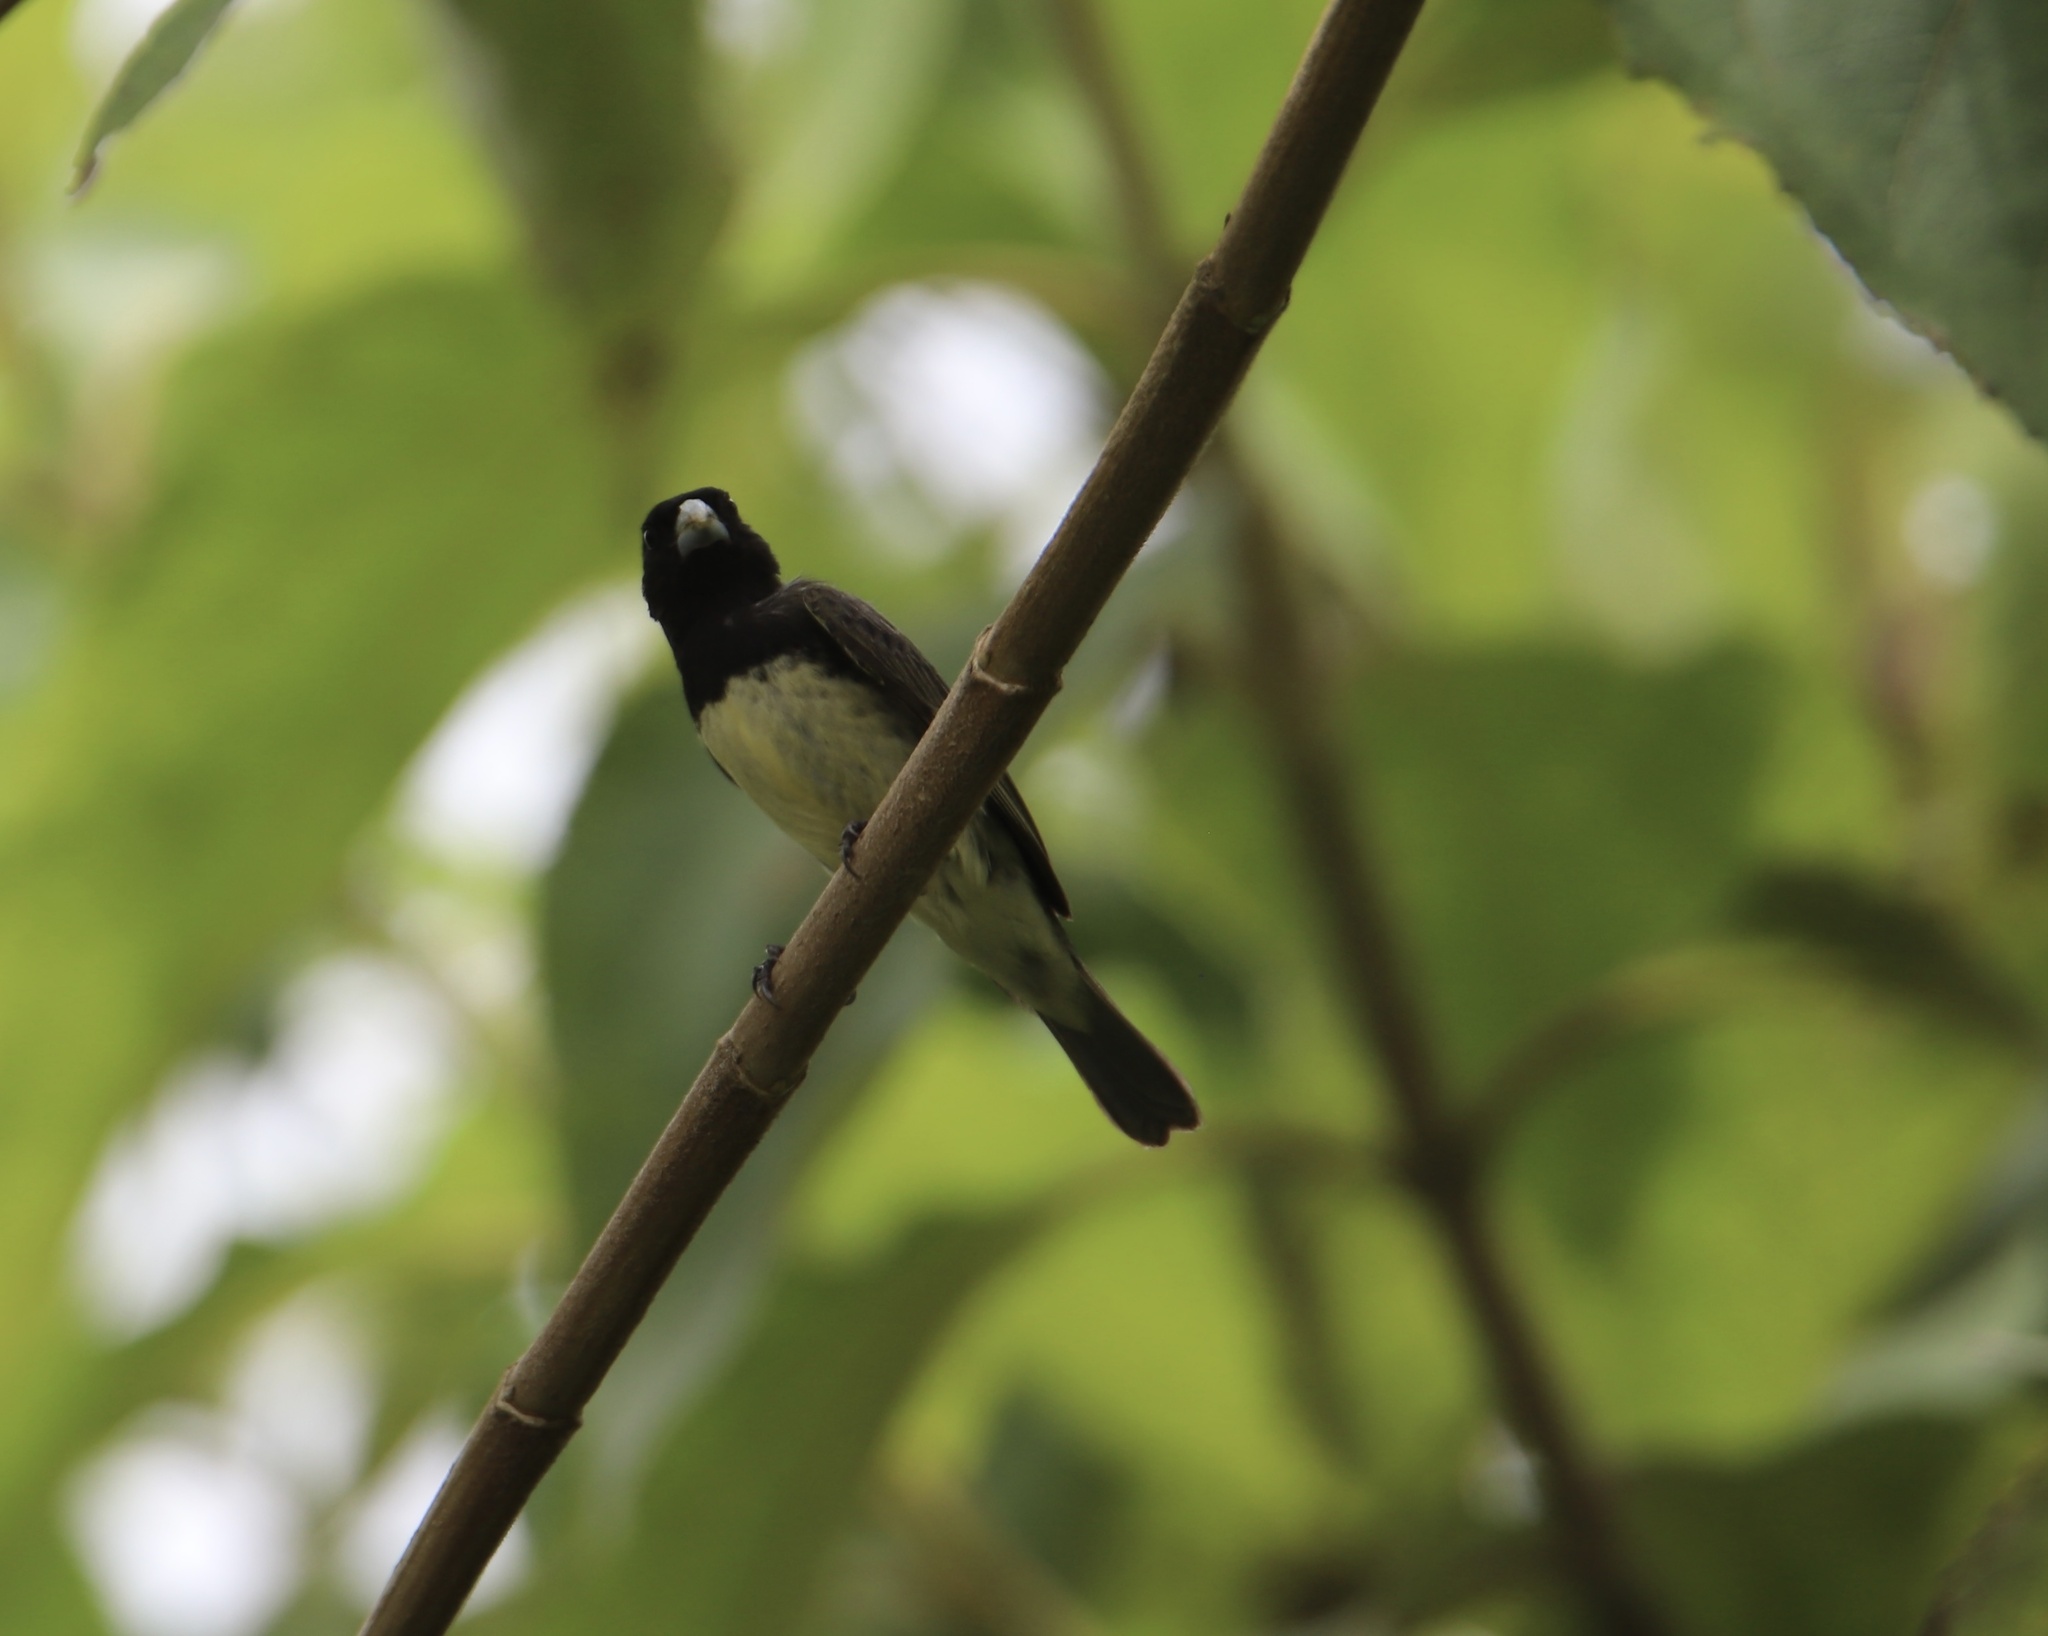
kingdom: Animalia
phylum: Chordata
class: Aves
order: Passeriformes
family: Thraupidae
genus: Sporophila
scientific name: Sporophila nigricollis
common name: Yellow-bellied seedeater
